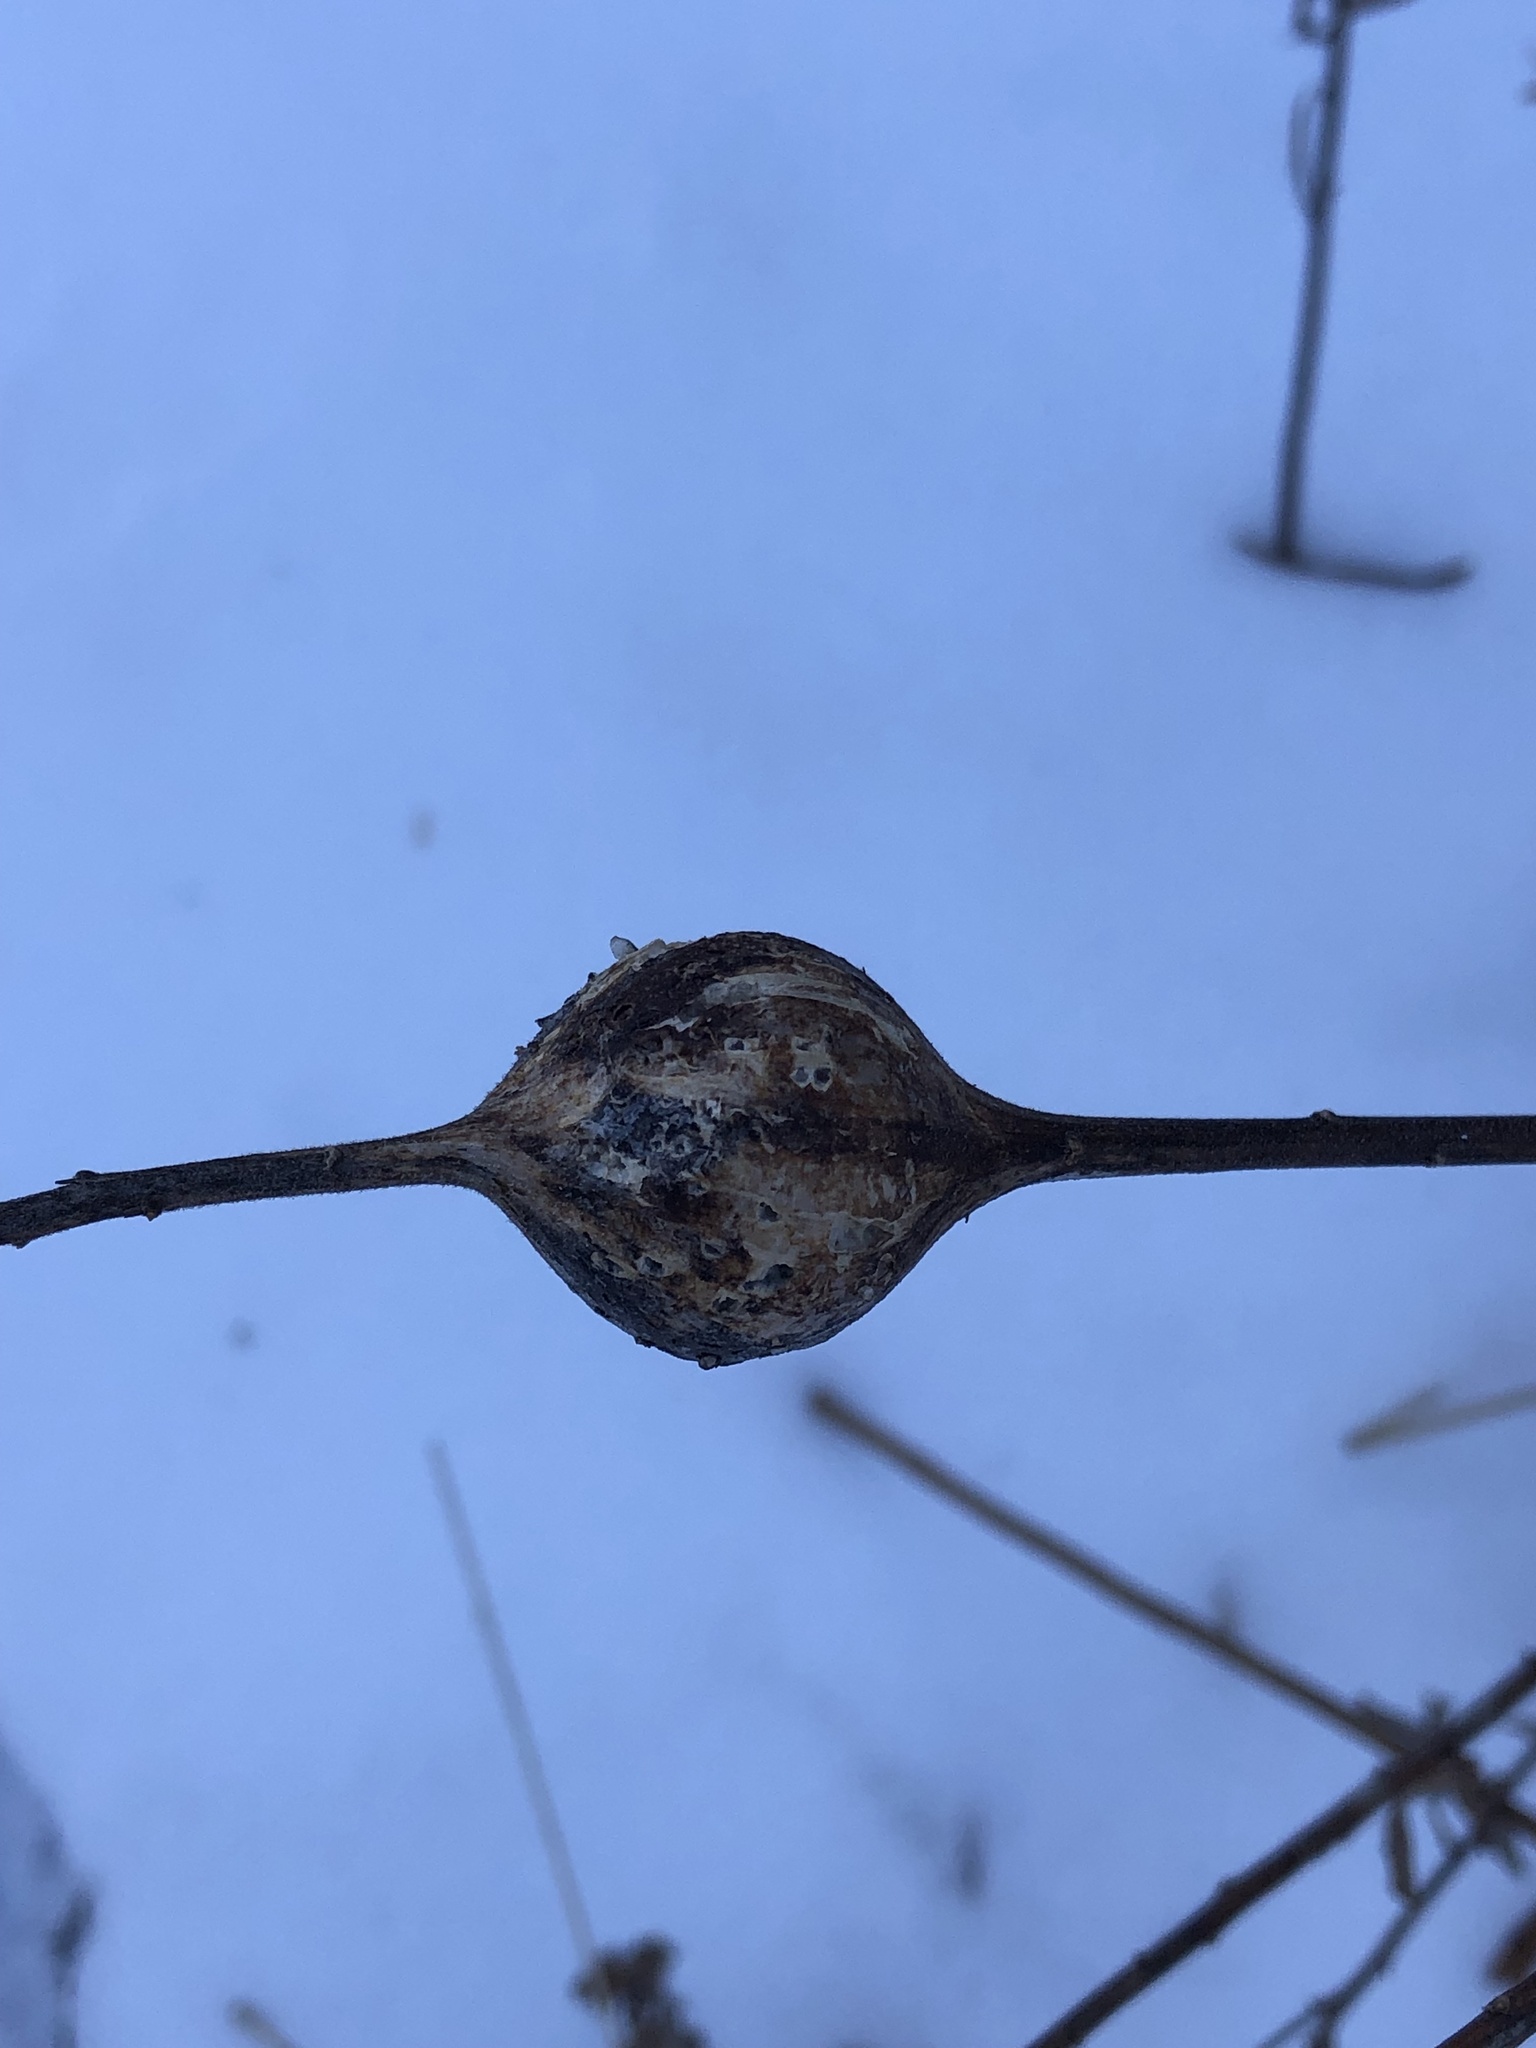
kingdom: Animalia
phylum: Arthropoda
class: Insecta
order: Diptera
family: Tephritidae
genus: Eurosta
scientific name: Eurosta solidaginis
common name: Goldenrod gall fly
